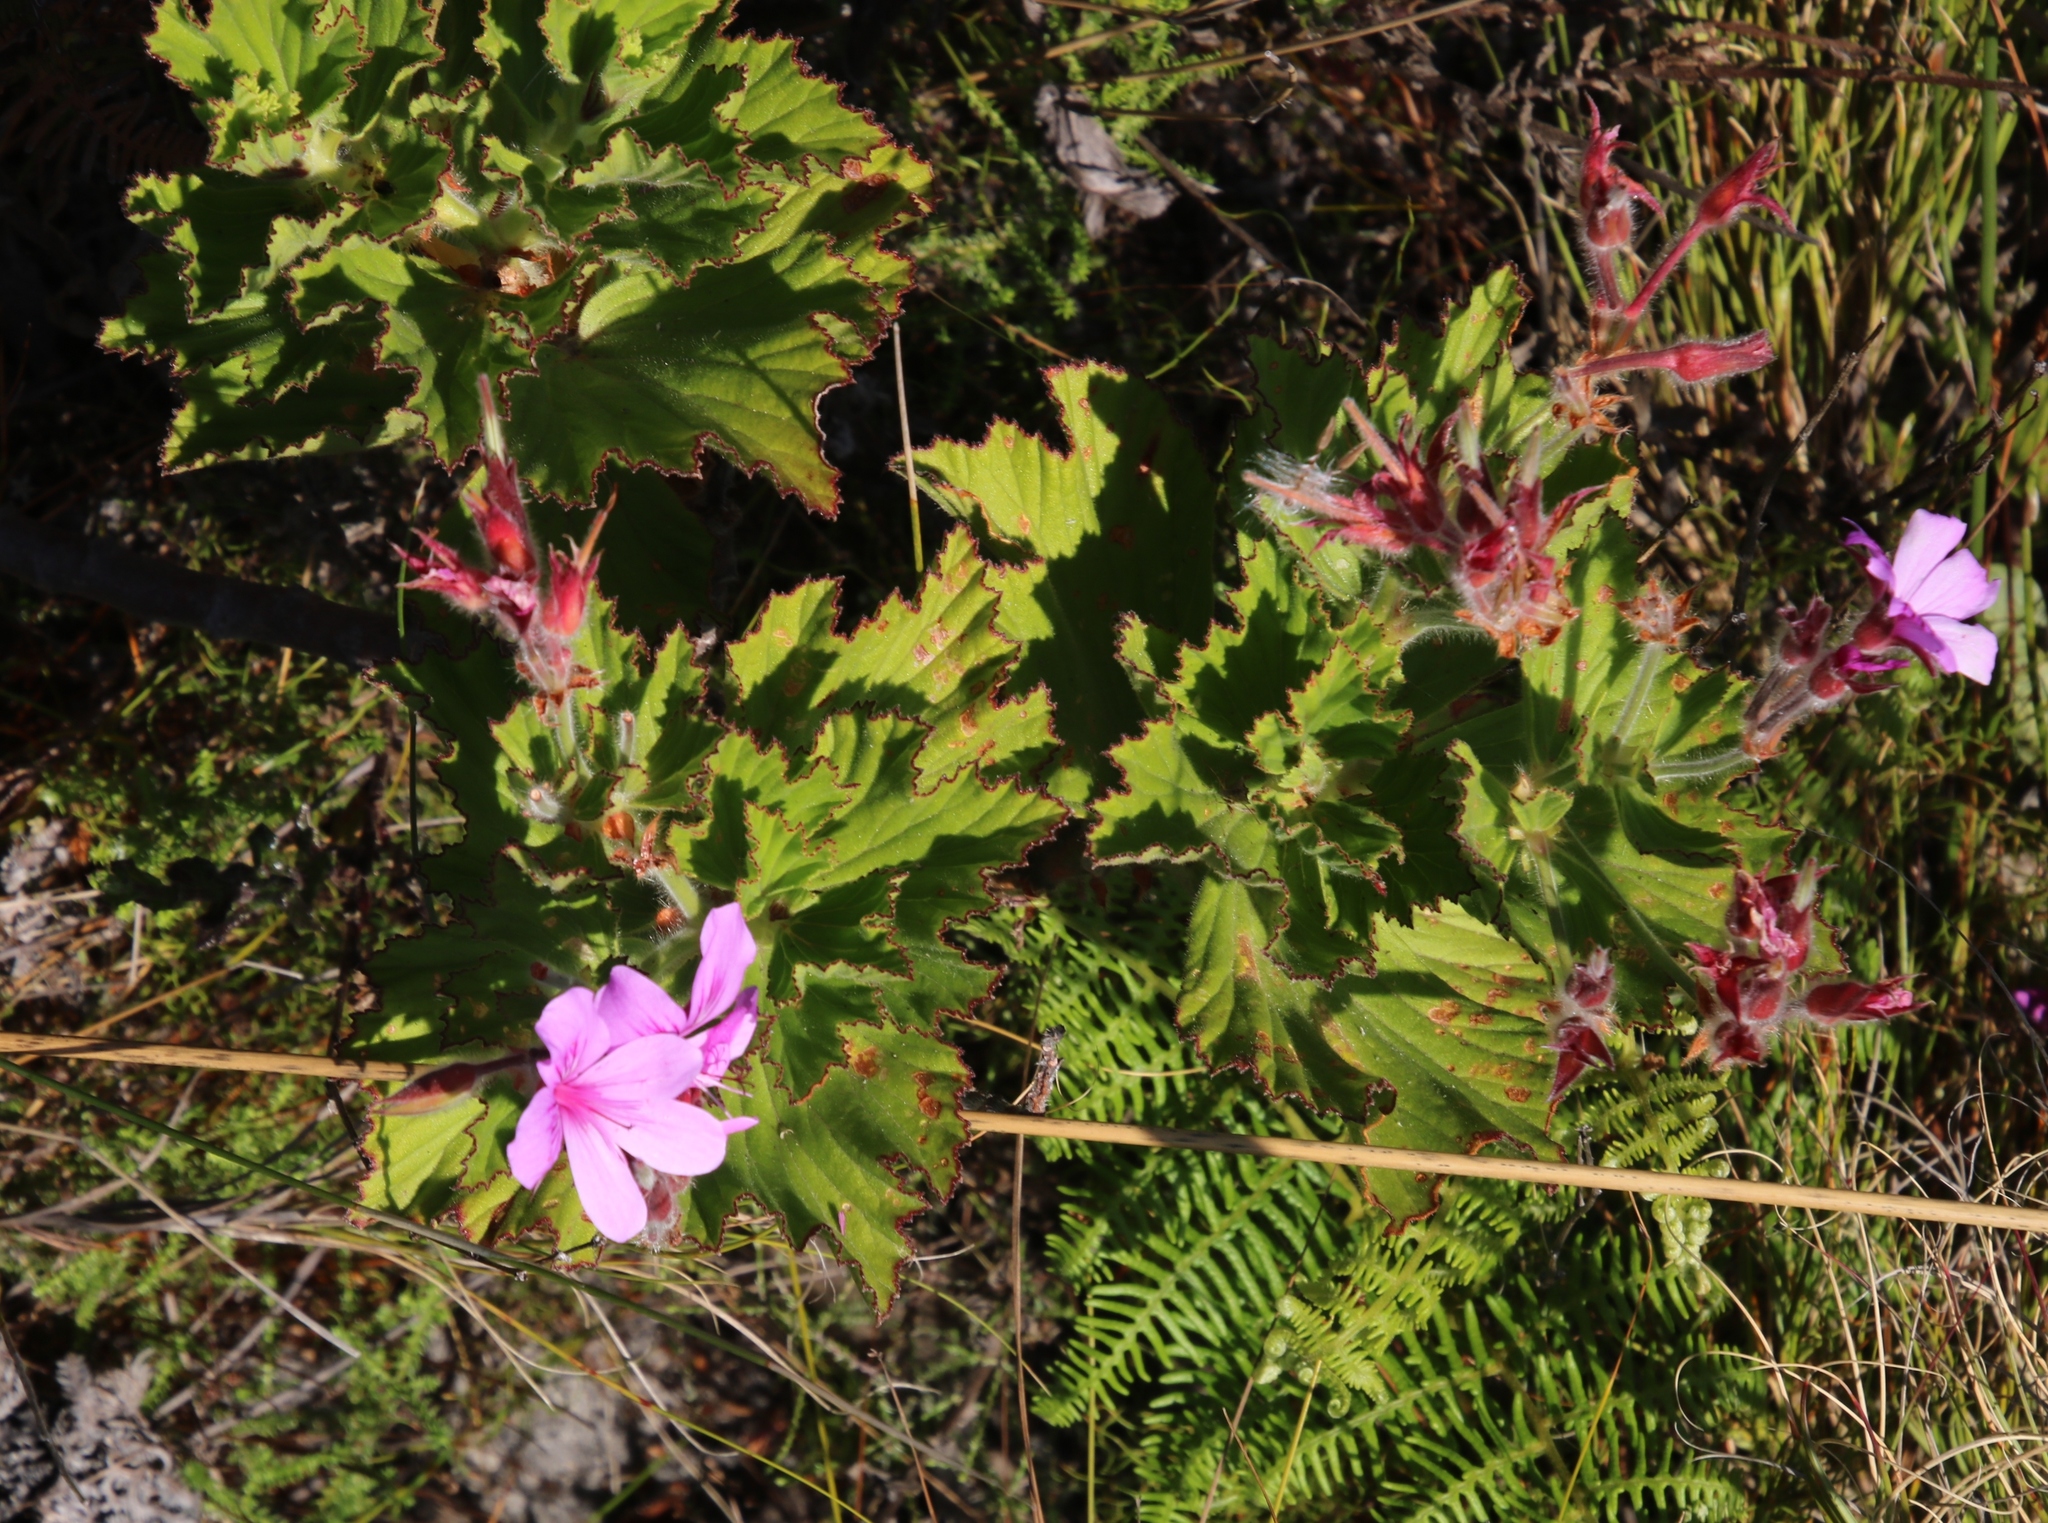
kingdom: Plantae
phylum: Tracheophyta
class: Magnoliopsida
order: Geraniales
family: Geraniaceae
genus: Pelargonium
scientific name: Pelargonium cucullatum
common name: Tree pelargonium
